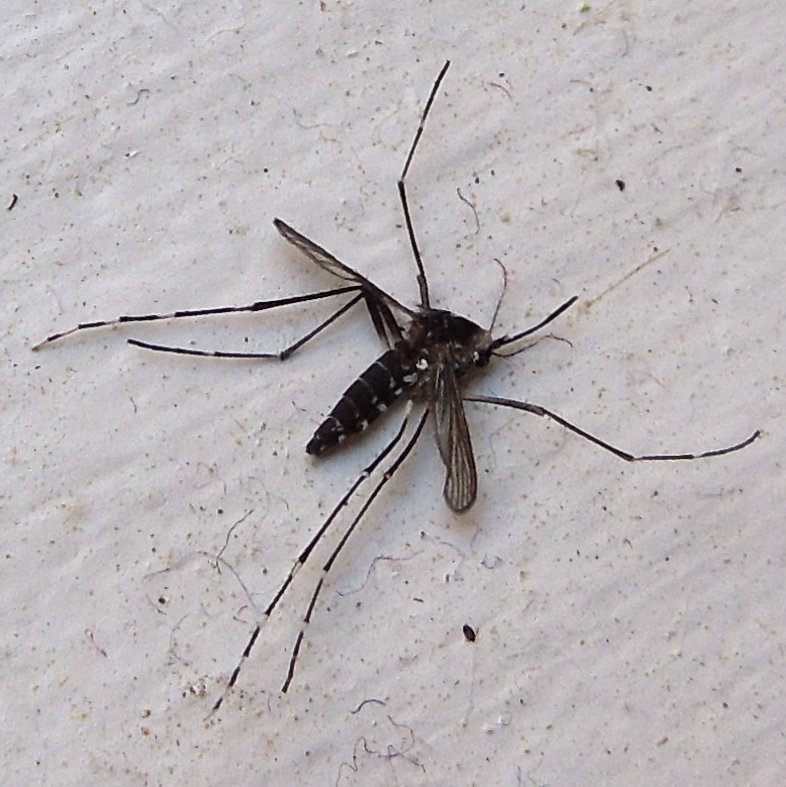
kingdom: Animalia
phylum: Arthropoda
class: Insecta
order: Diptera
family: Culicidae
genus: Aedes
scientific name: Aedes albopictus
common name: Tiger mosquito
